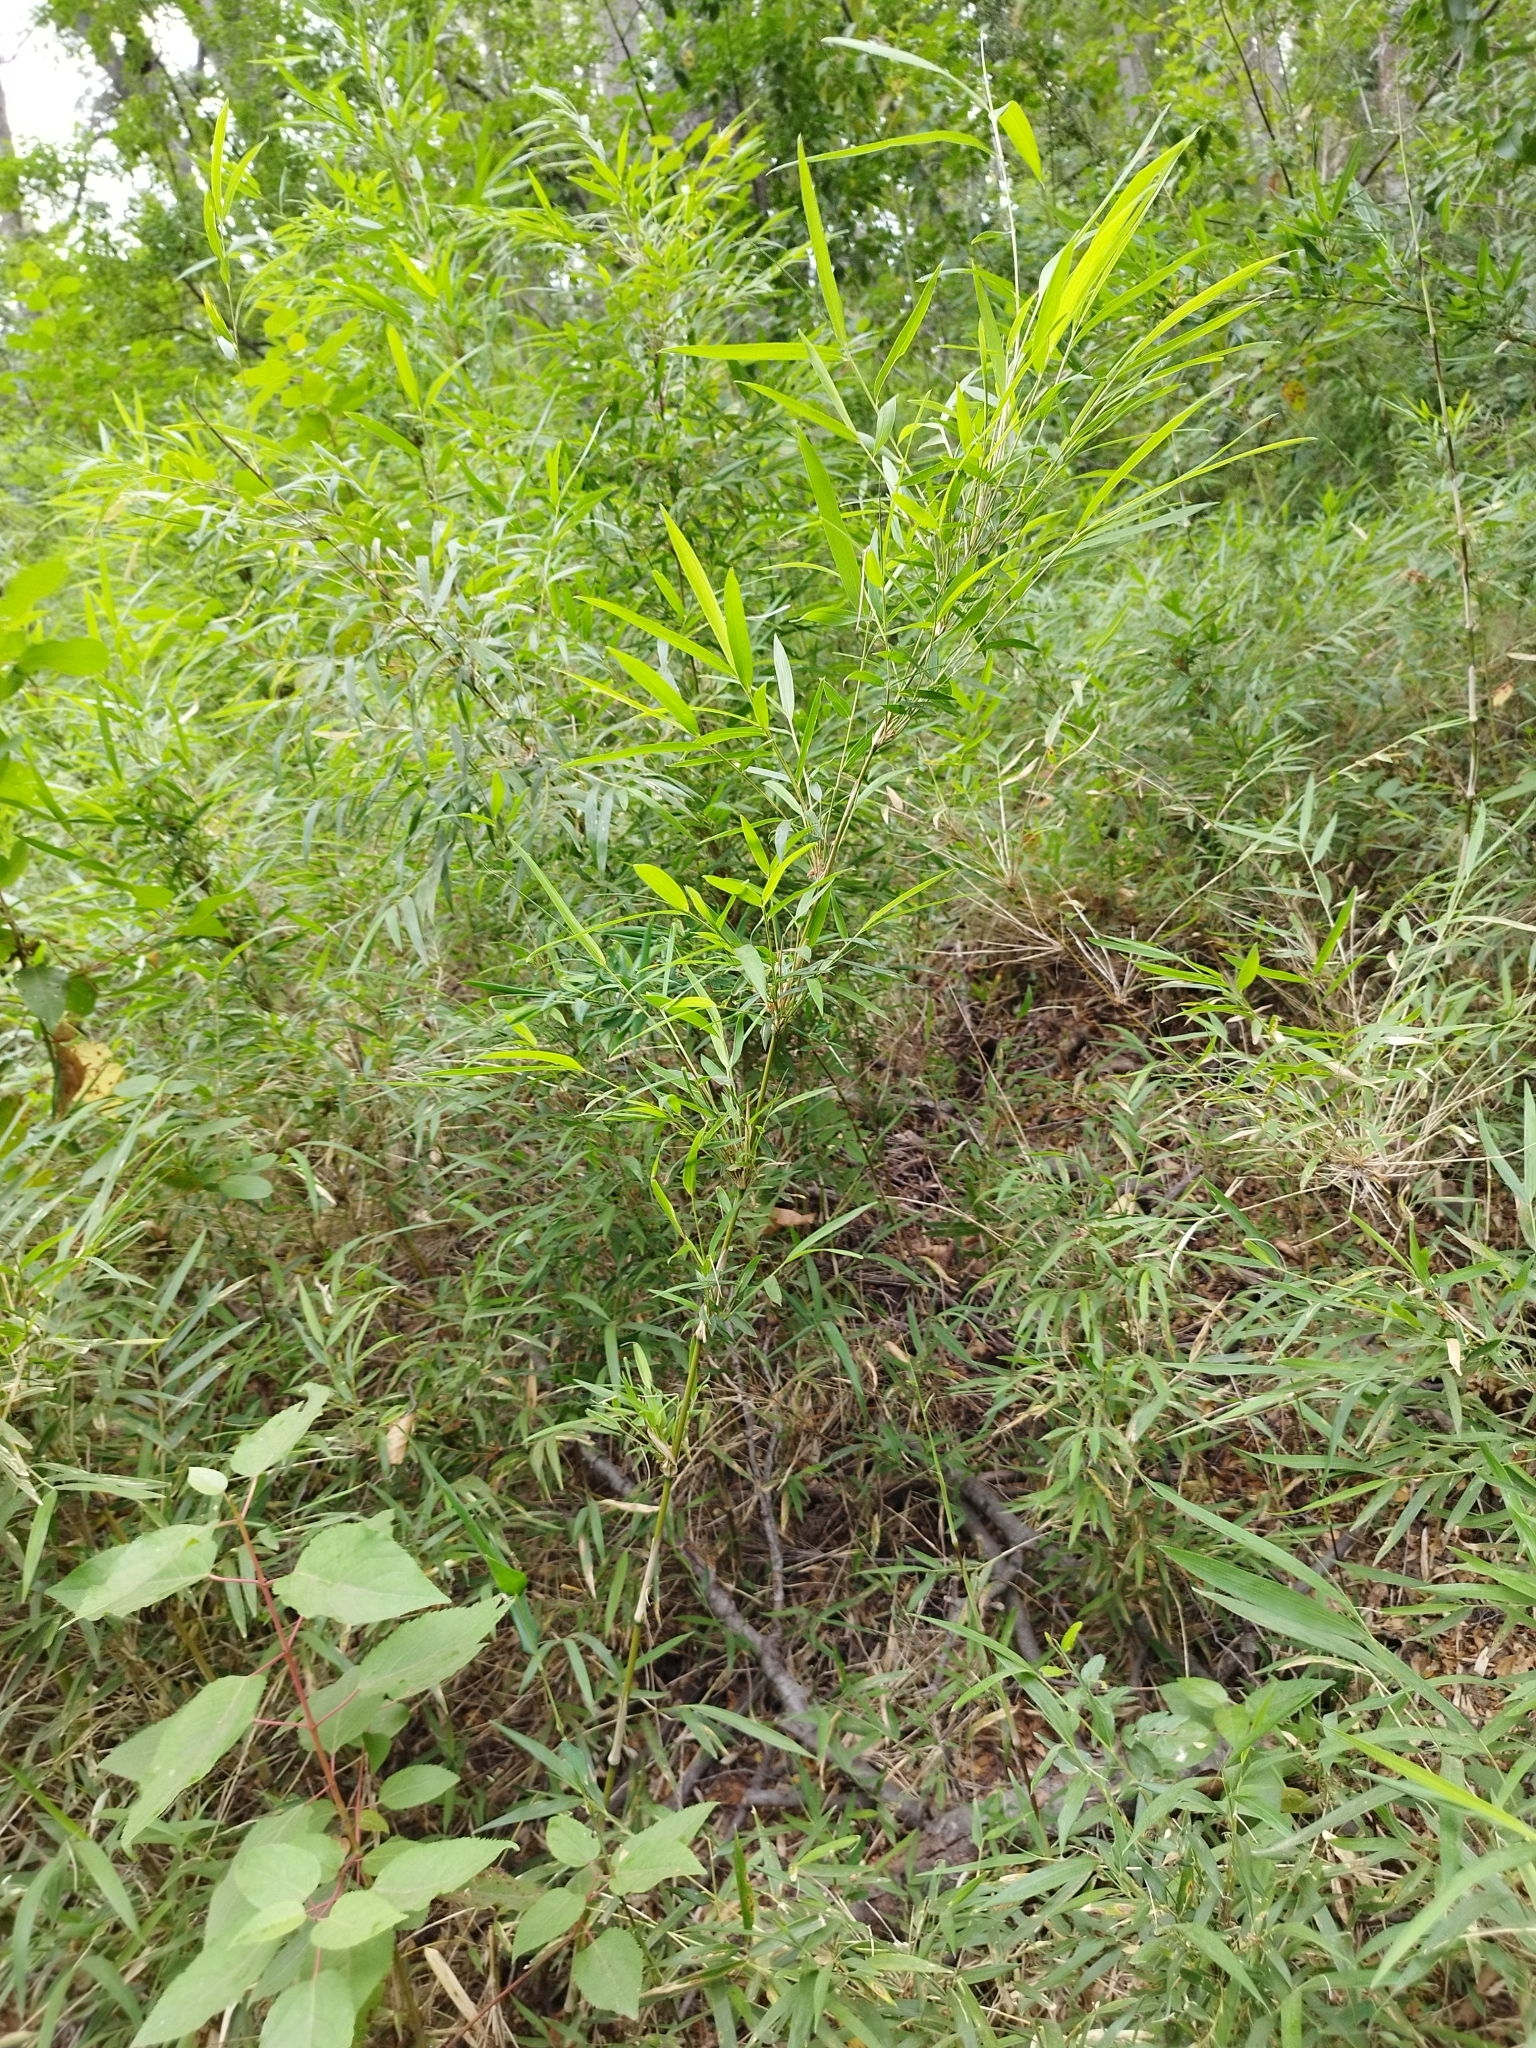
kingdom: Plantae
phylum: Tracheophyta
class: Liliopsida
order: Poales
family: Poaceae
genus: Chusquea
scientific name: Chusquea culeou
